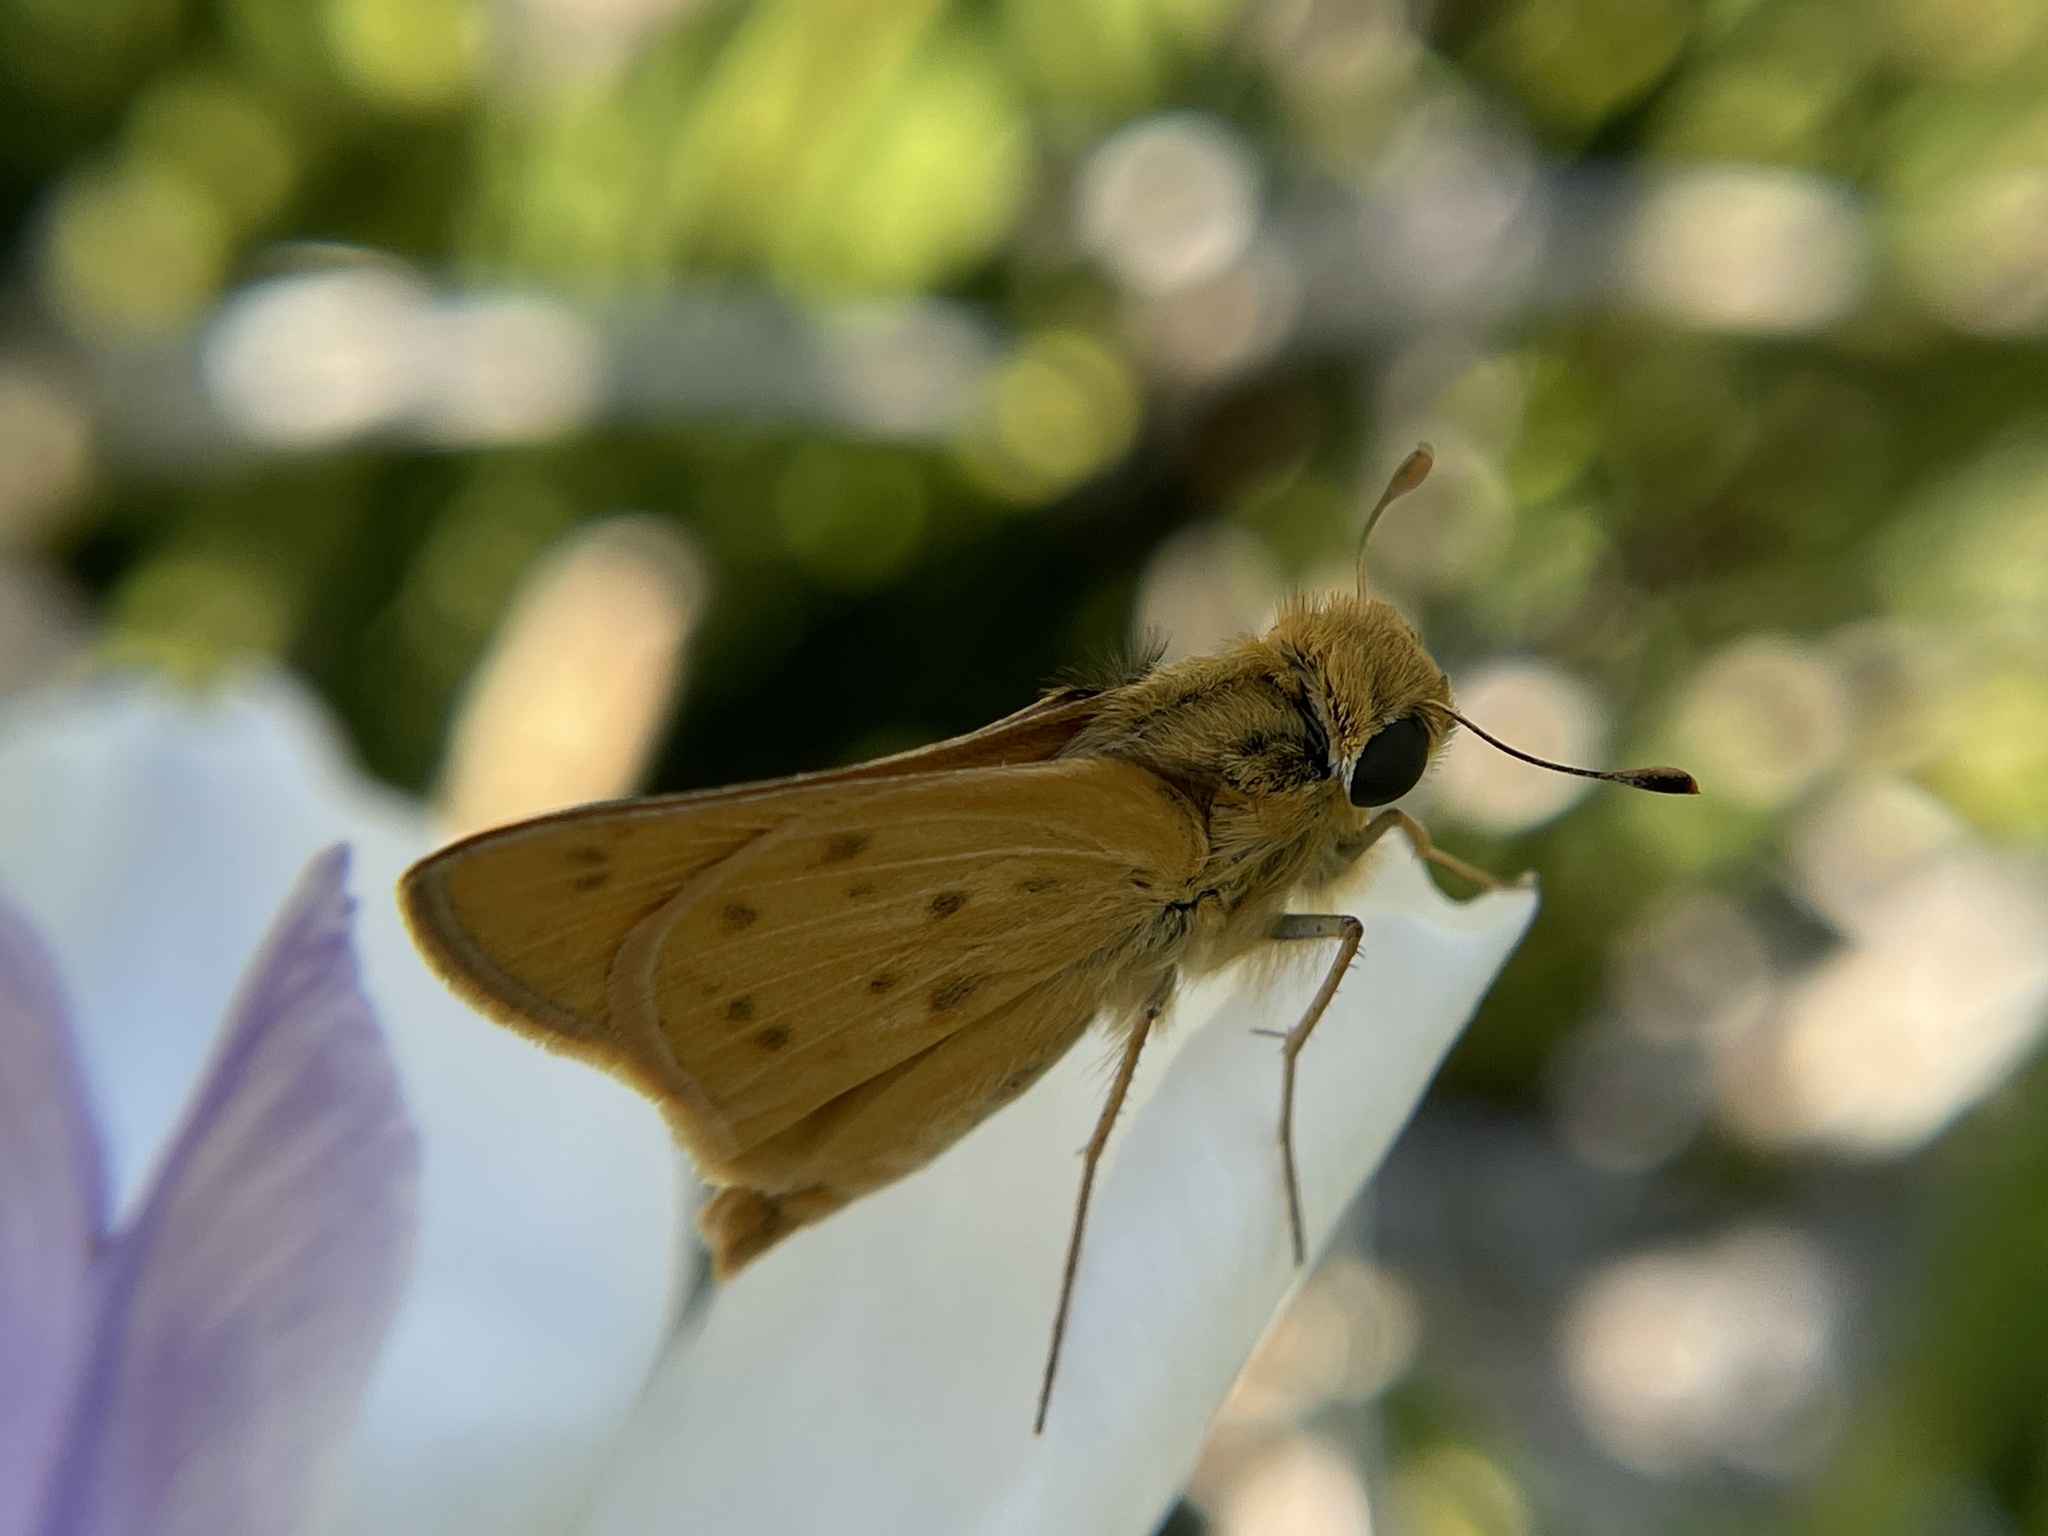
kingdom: Animalia
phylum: Arthropoda
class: Insecta
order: Lepidoptera
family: Hesperiidae
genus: Hylephila
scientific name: Hylephila phyleus
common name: Fiery skipper
